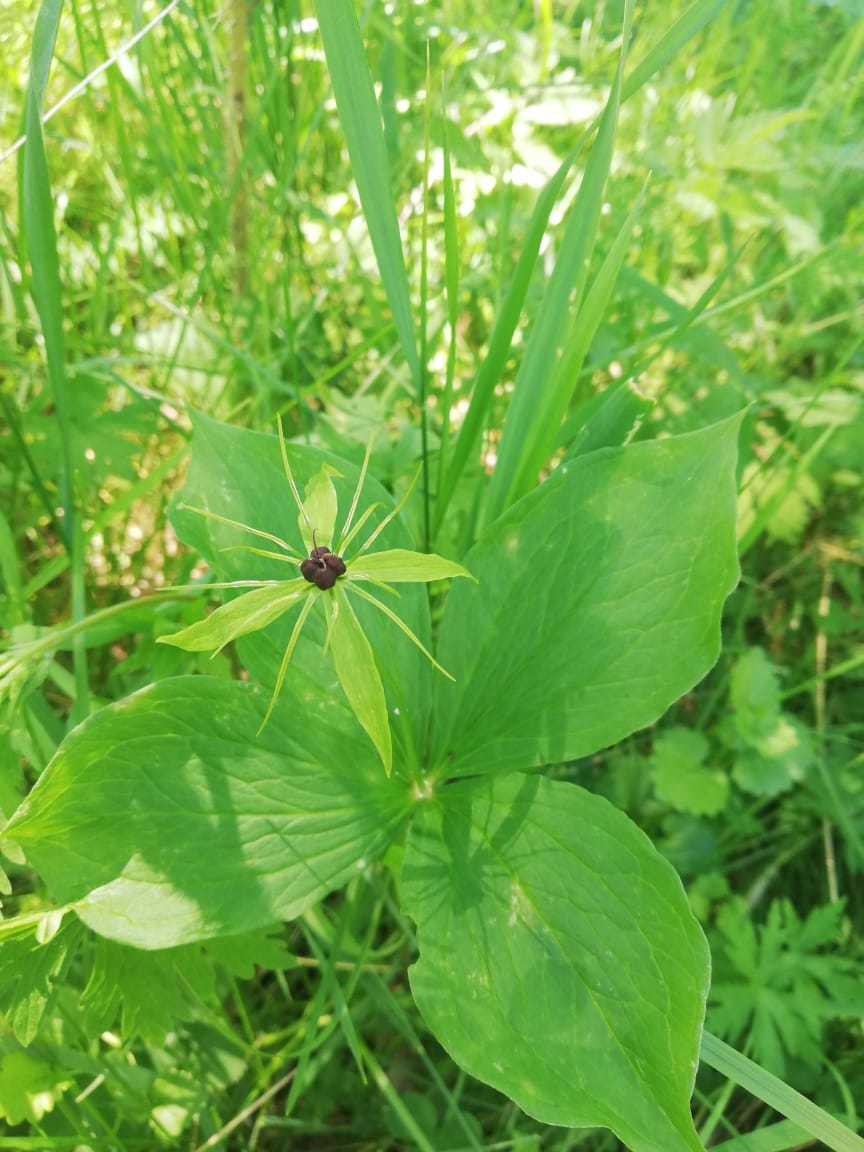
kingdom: Plantae
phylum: Tracheophyta
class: Liliopsida
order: Liliales
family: Melanthiaceae
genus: Paris
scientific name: Paris quadrifolia
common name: Herb-paris
